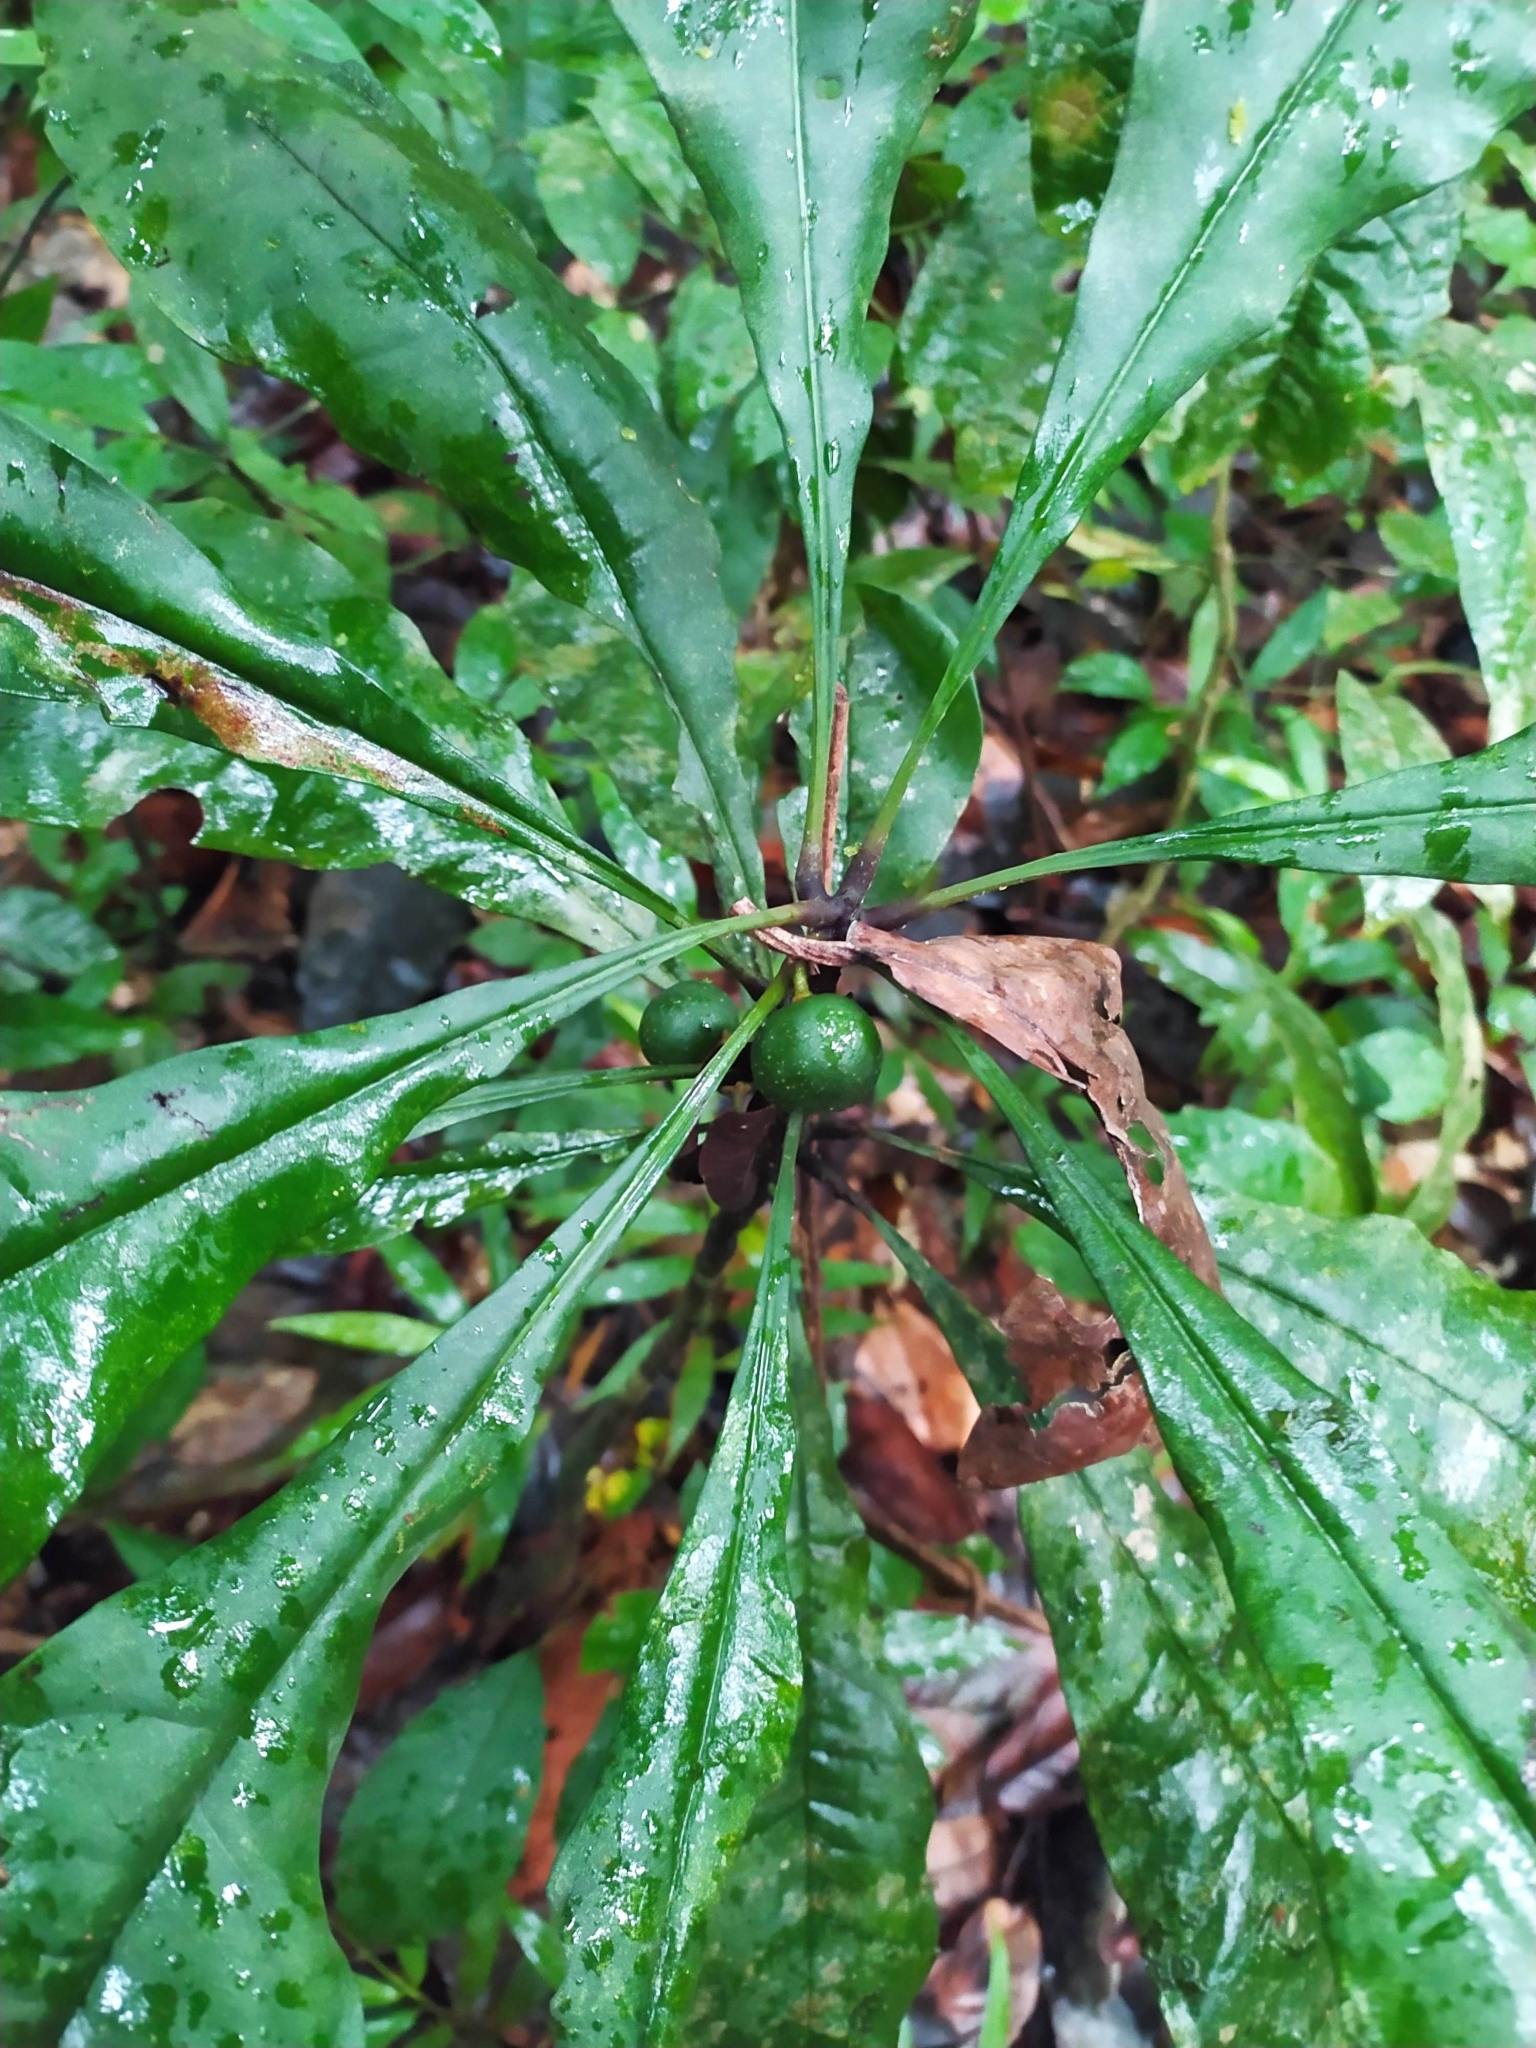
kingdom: Plantae
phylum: Tracheophyta
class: Magnoliopsida
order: Ericales
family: Primulaceae
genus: Clavija
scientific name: Clavija lancifolia
